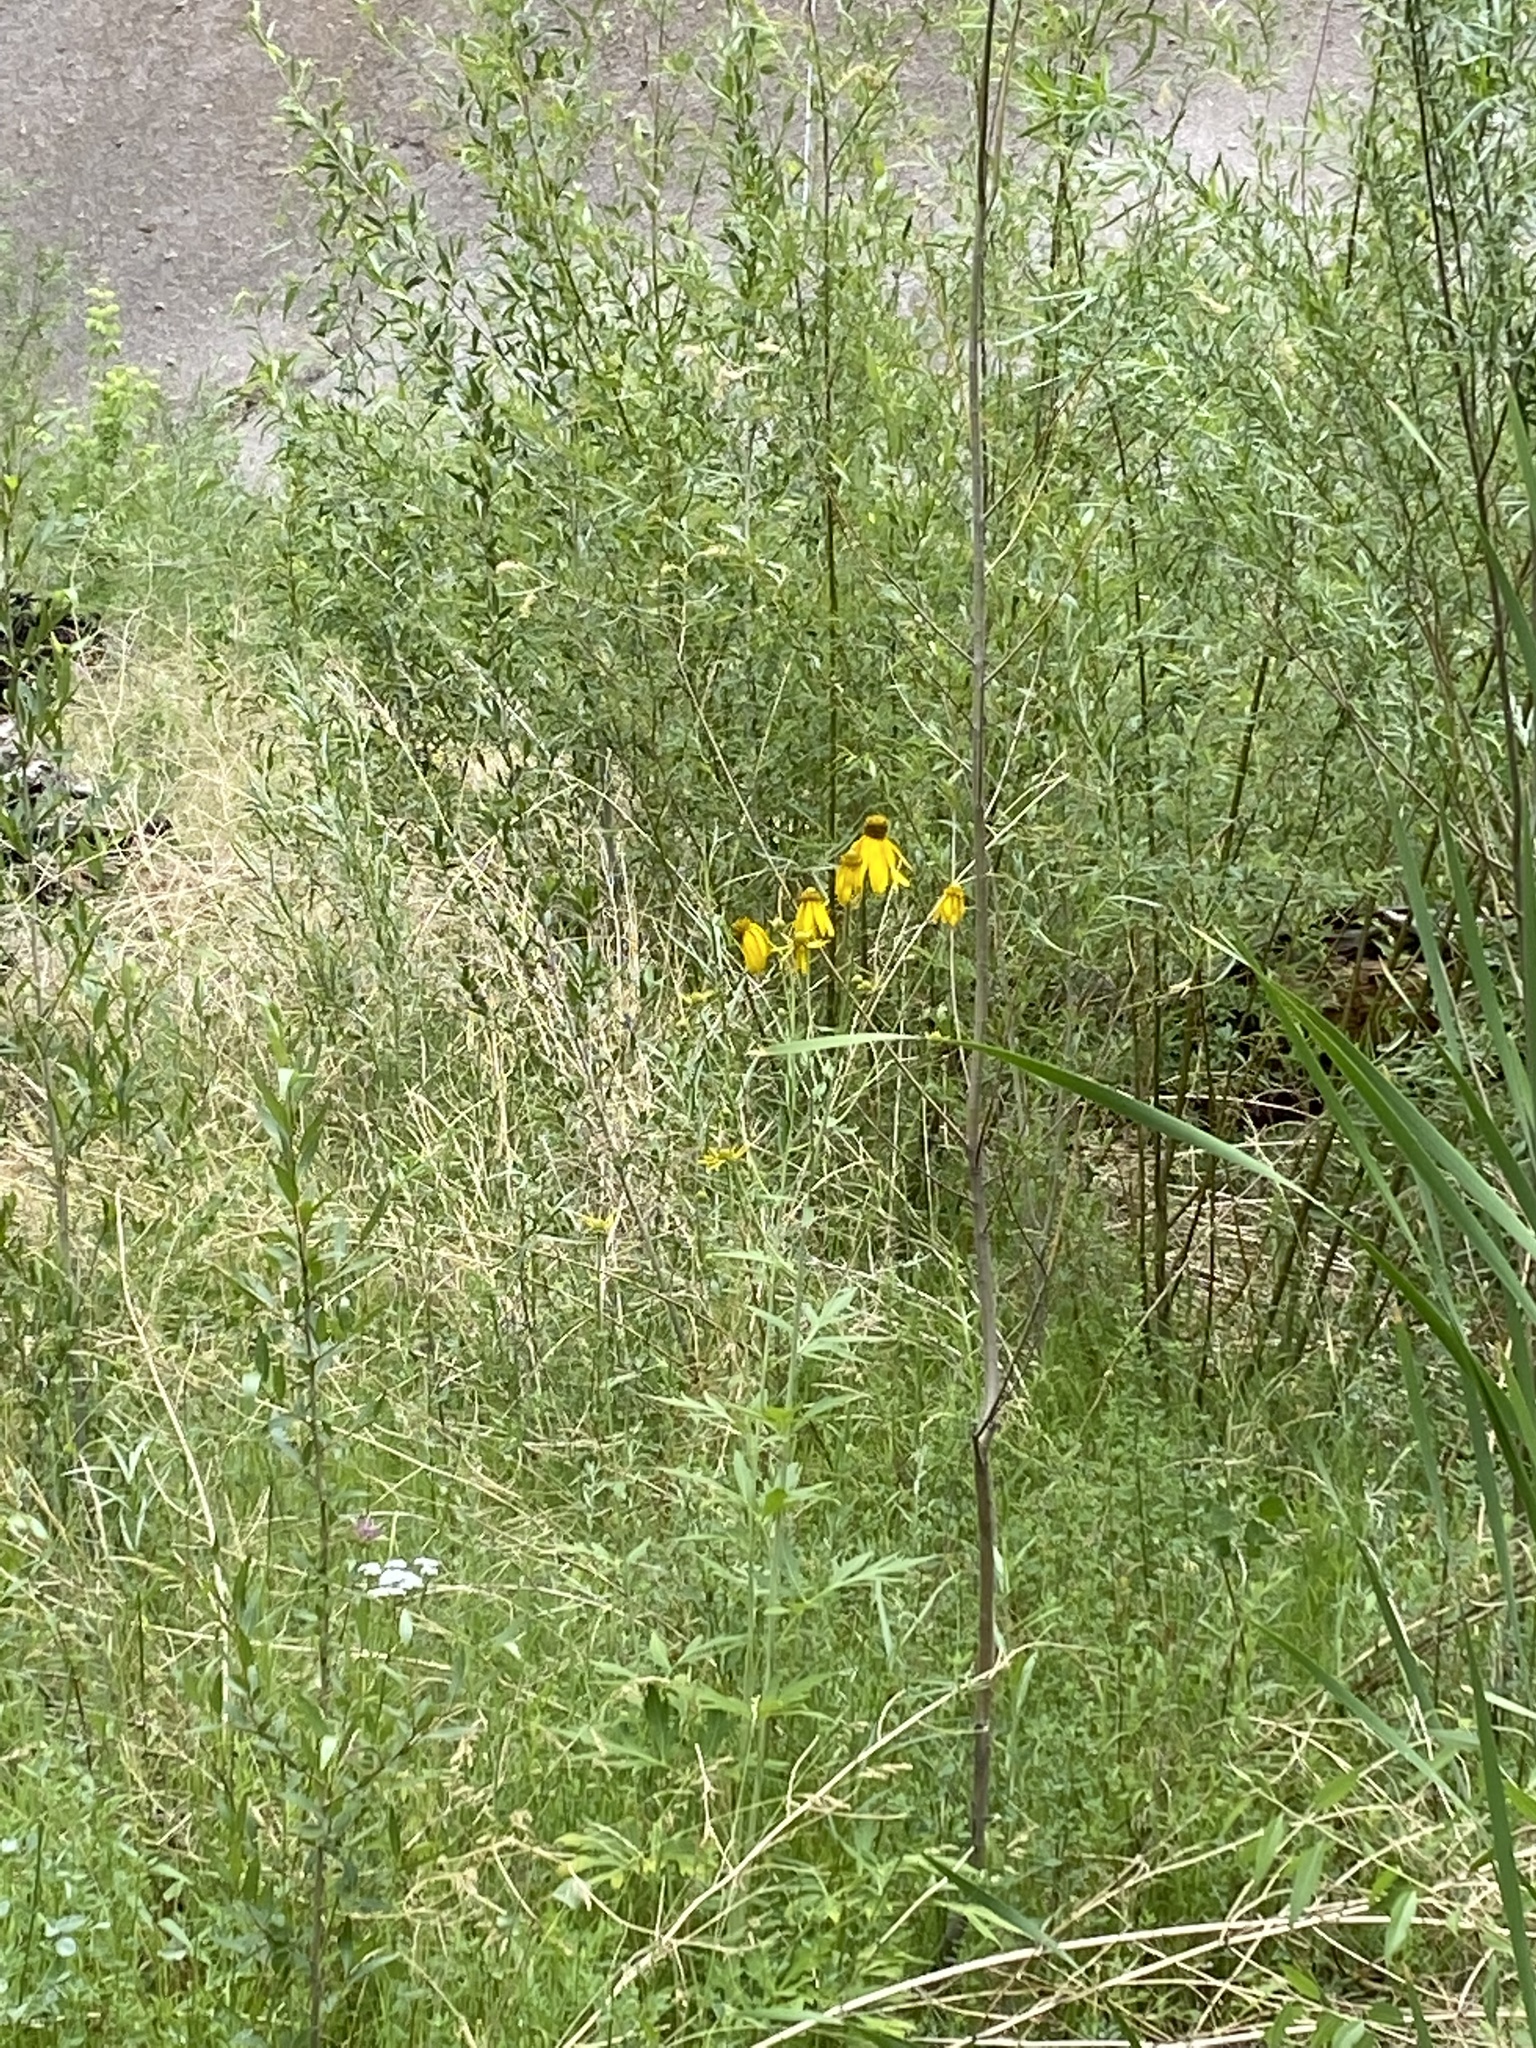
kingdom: Plantae
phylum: Tracheophyta
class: Magnoliopsida
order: Asterales
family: Asteraceae
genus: Rudbeckia
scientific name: Rudbeckia laciniata
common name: Coneflower
